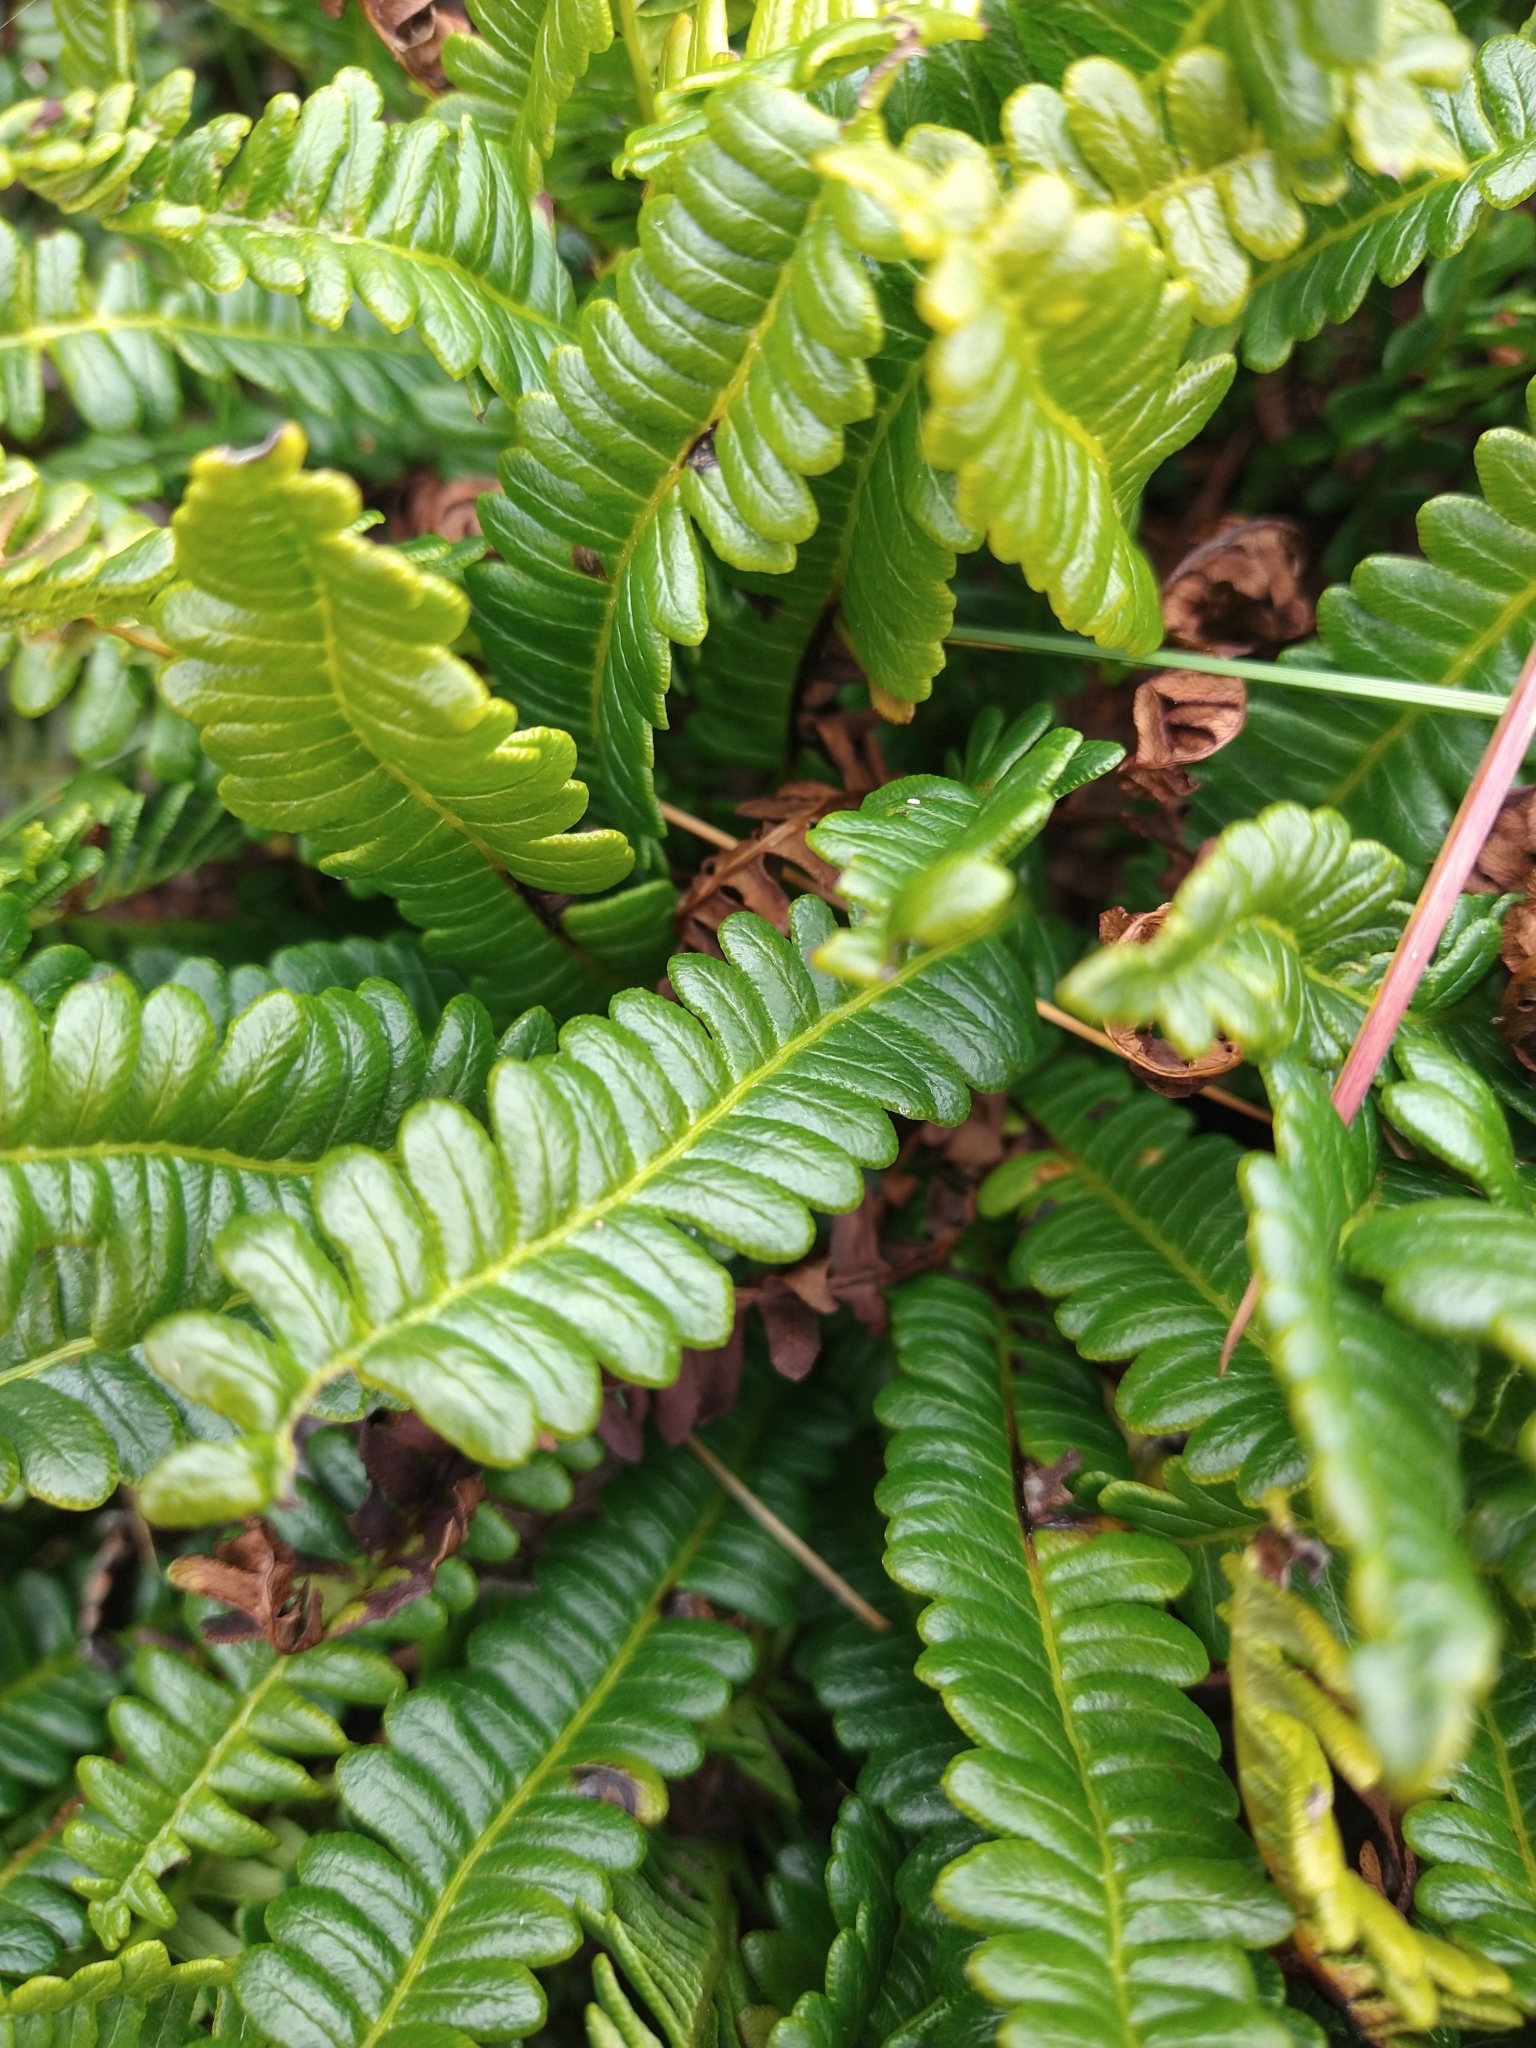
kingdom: Plantae
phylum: Tracheophyta
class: Polypodiopsida
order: Polypodiales
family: Blechnaceae
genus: Austroblechnum
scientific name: Austroblechnum penna-marina
